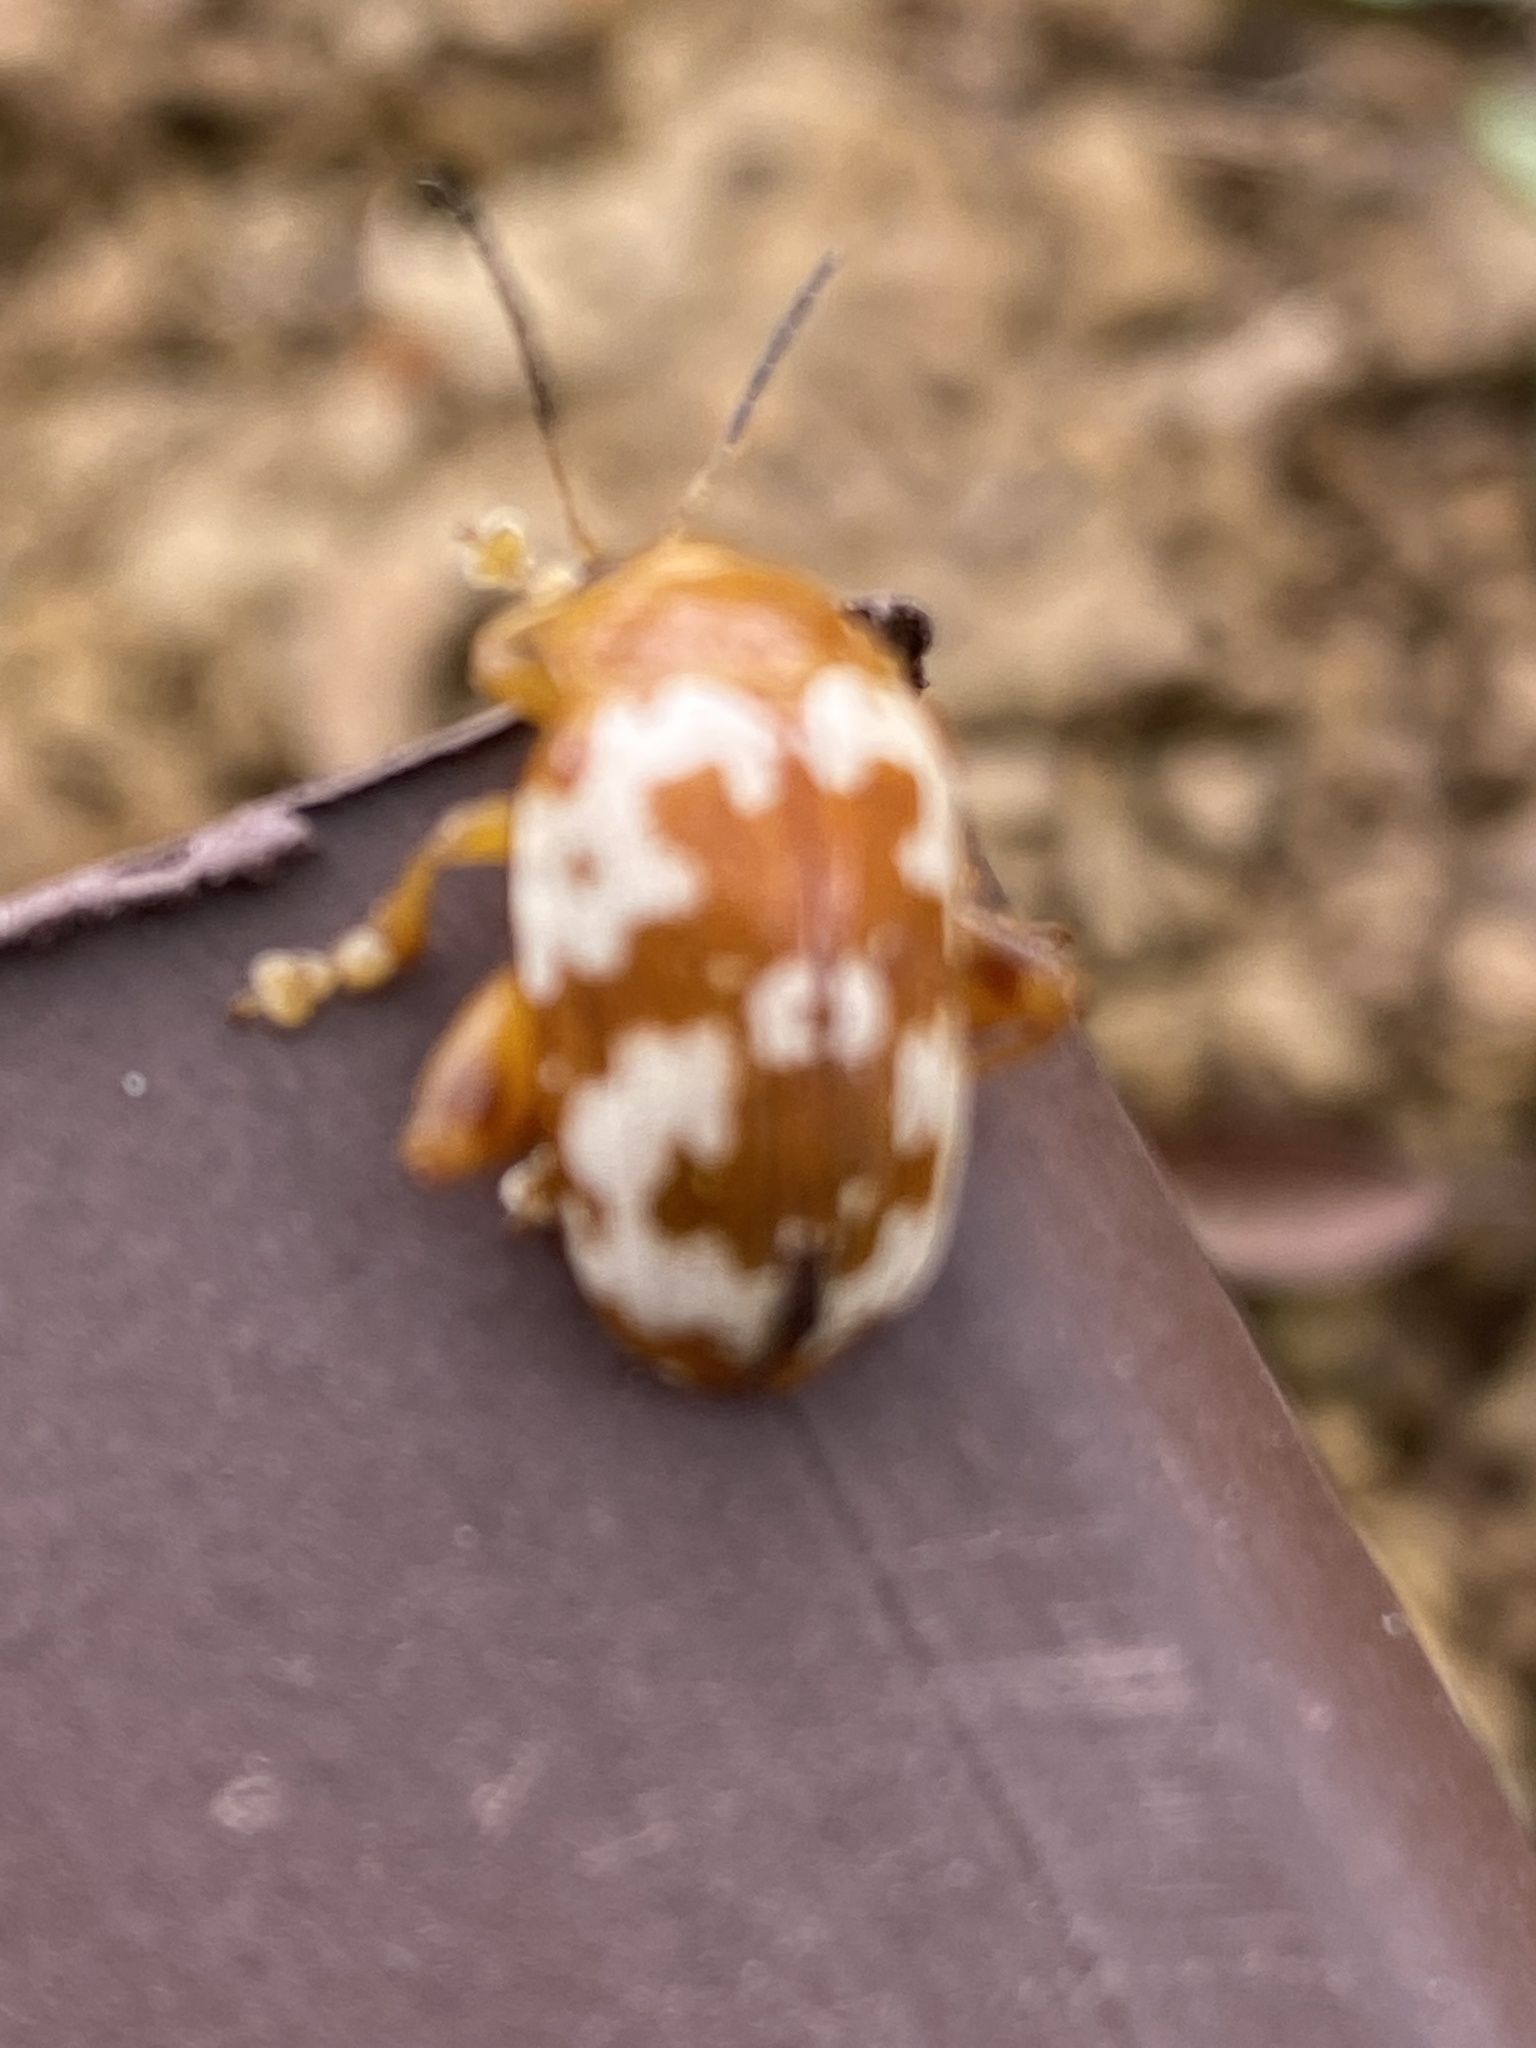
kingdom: Animalia
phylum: Arthropoda
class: Insecta
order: Coleoptera
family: Chrysomelidae
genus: Asiophrida
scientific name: Asiophrida
